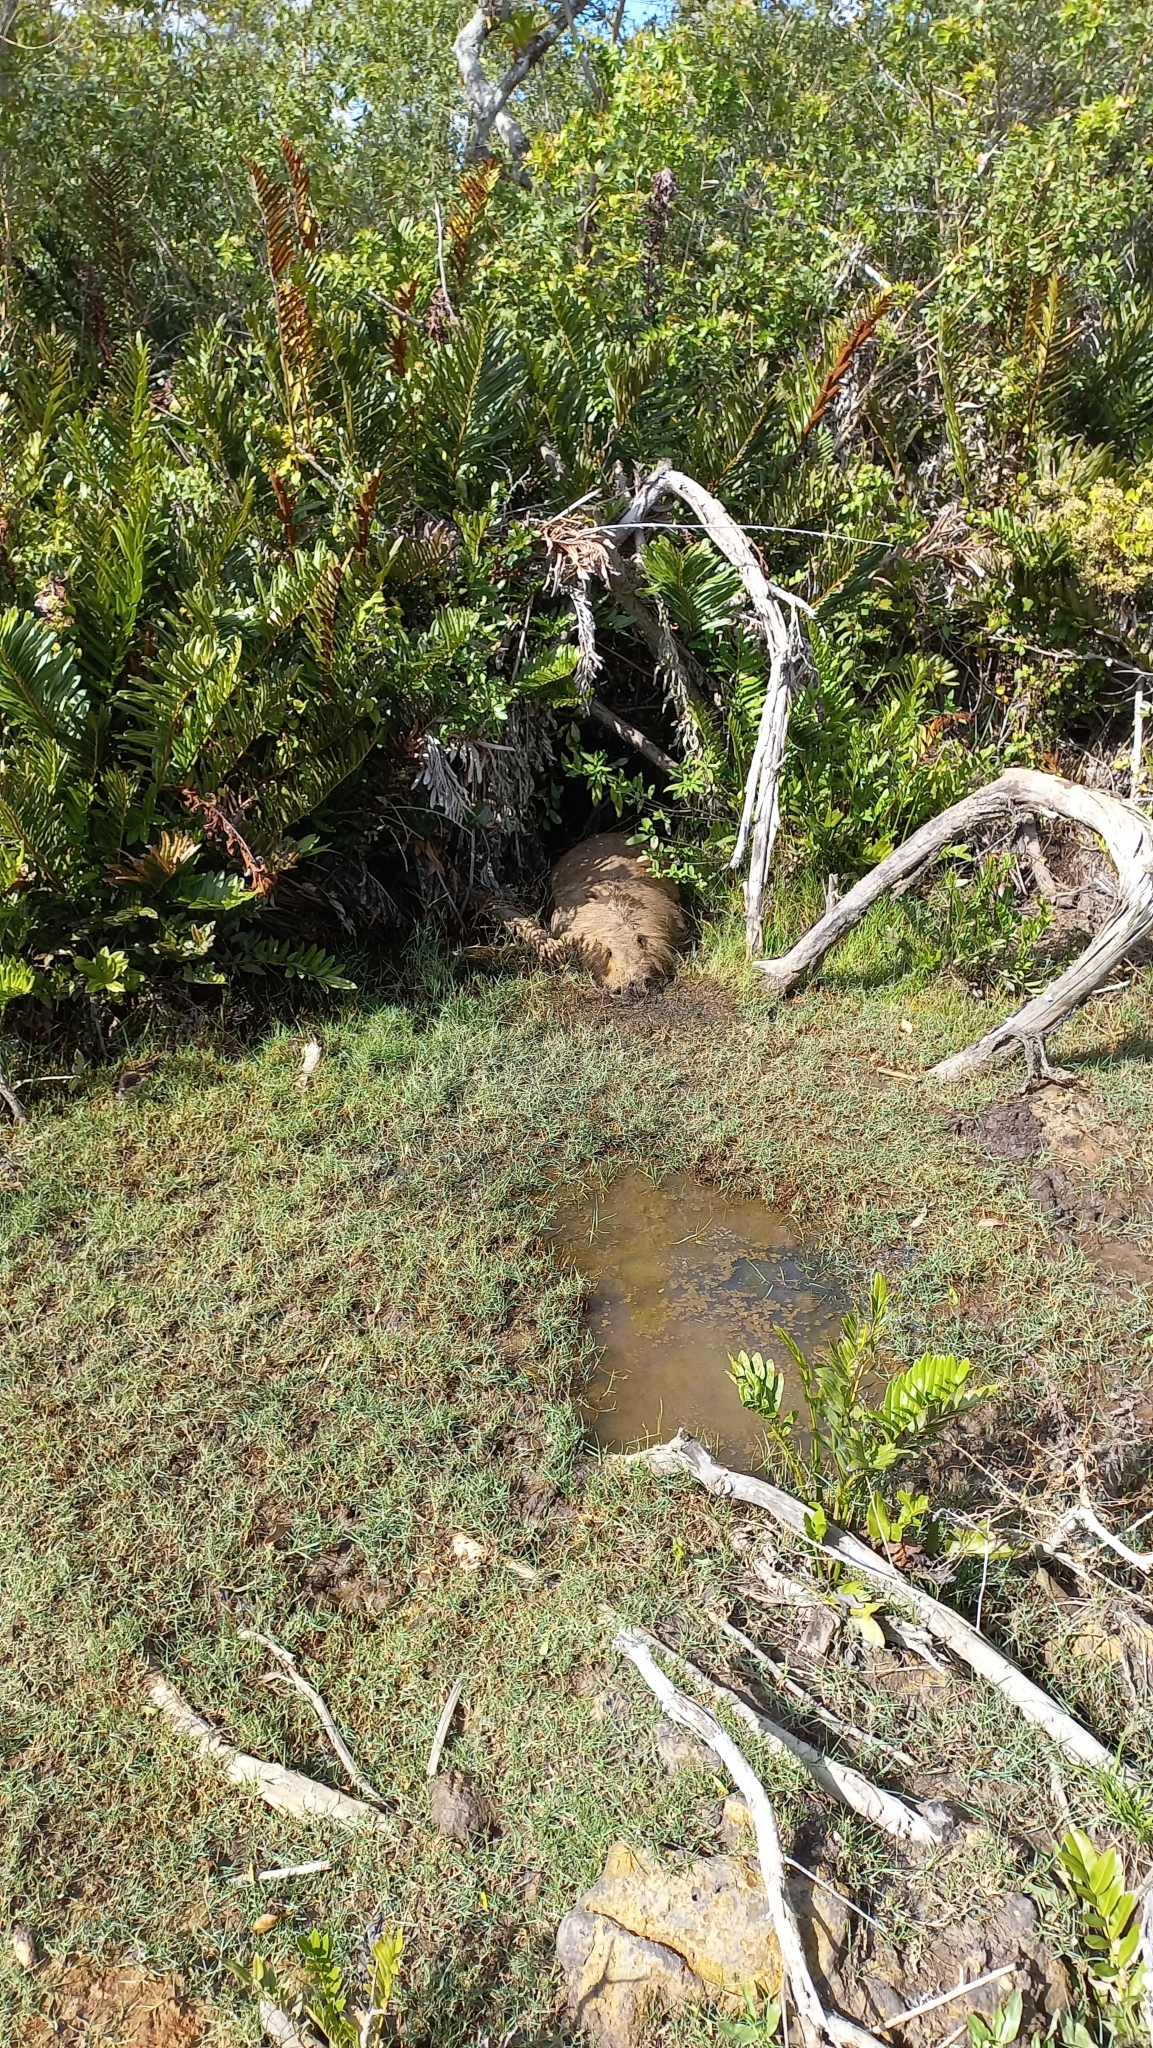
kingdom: Animalia
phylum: Chordata
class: Mammalia
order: Rodentia
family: Caviidae
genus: Hydrochoerus
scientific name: Hydrochoerus hydrochaeris
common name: Capybara
